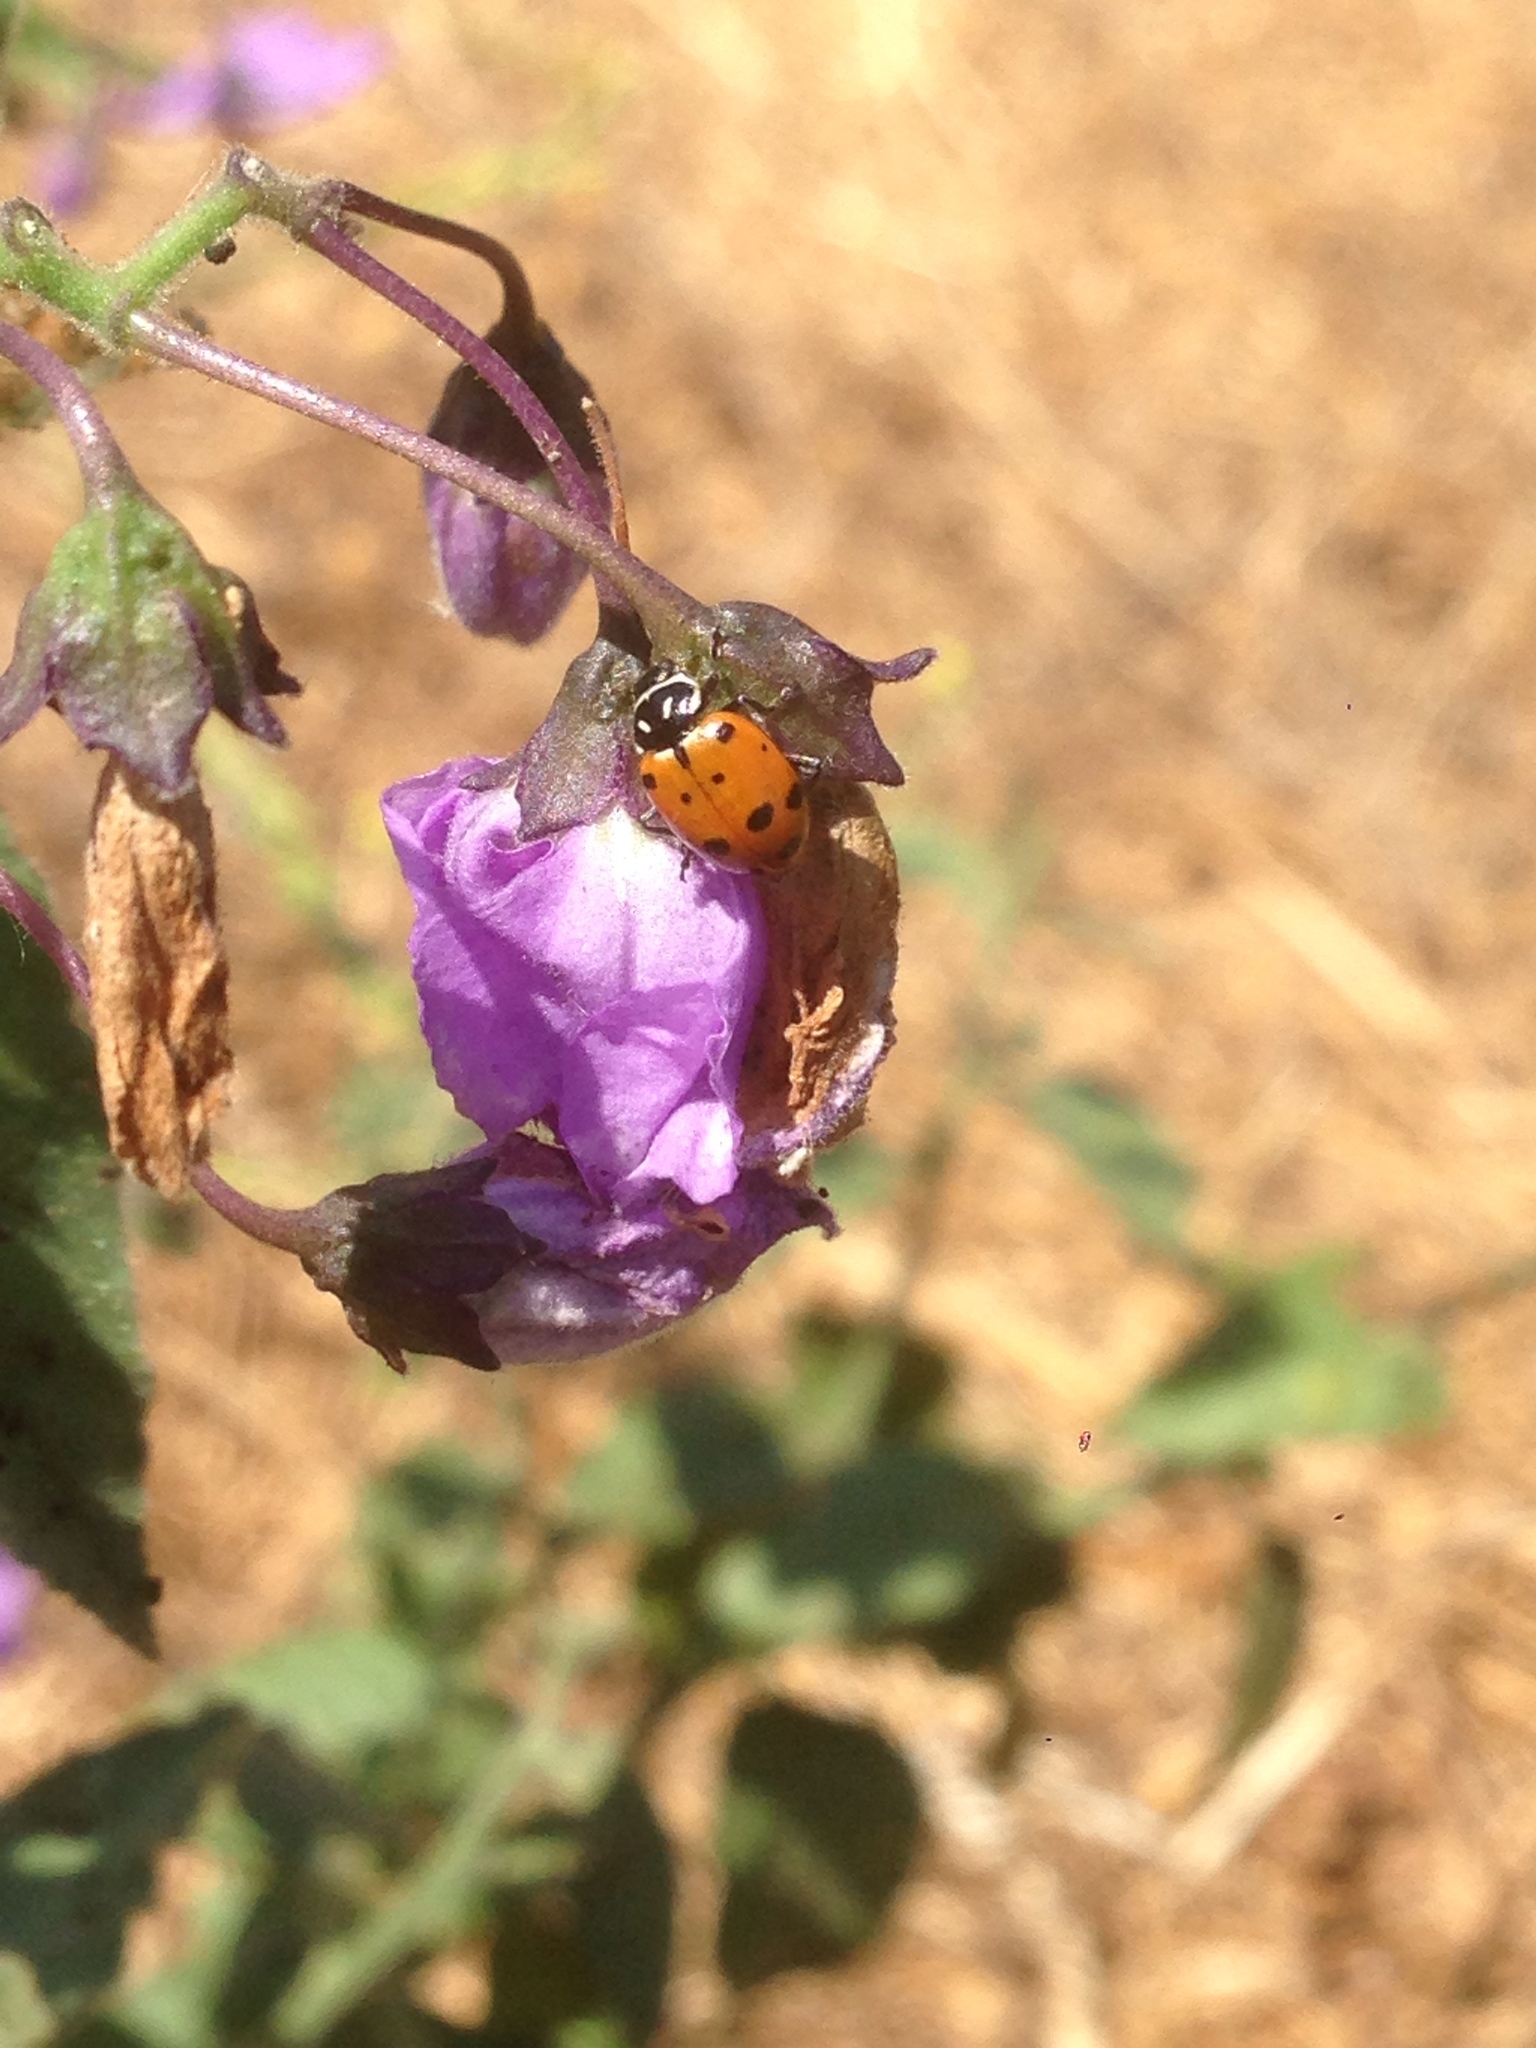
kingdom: Animalia
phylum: Arthropoda
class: Insecta
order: Coleoptera
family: Coccinellidae
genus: Hippodamia
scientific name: Hippodamia convergens
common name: Convergent lady beetle
